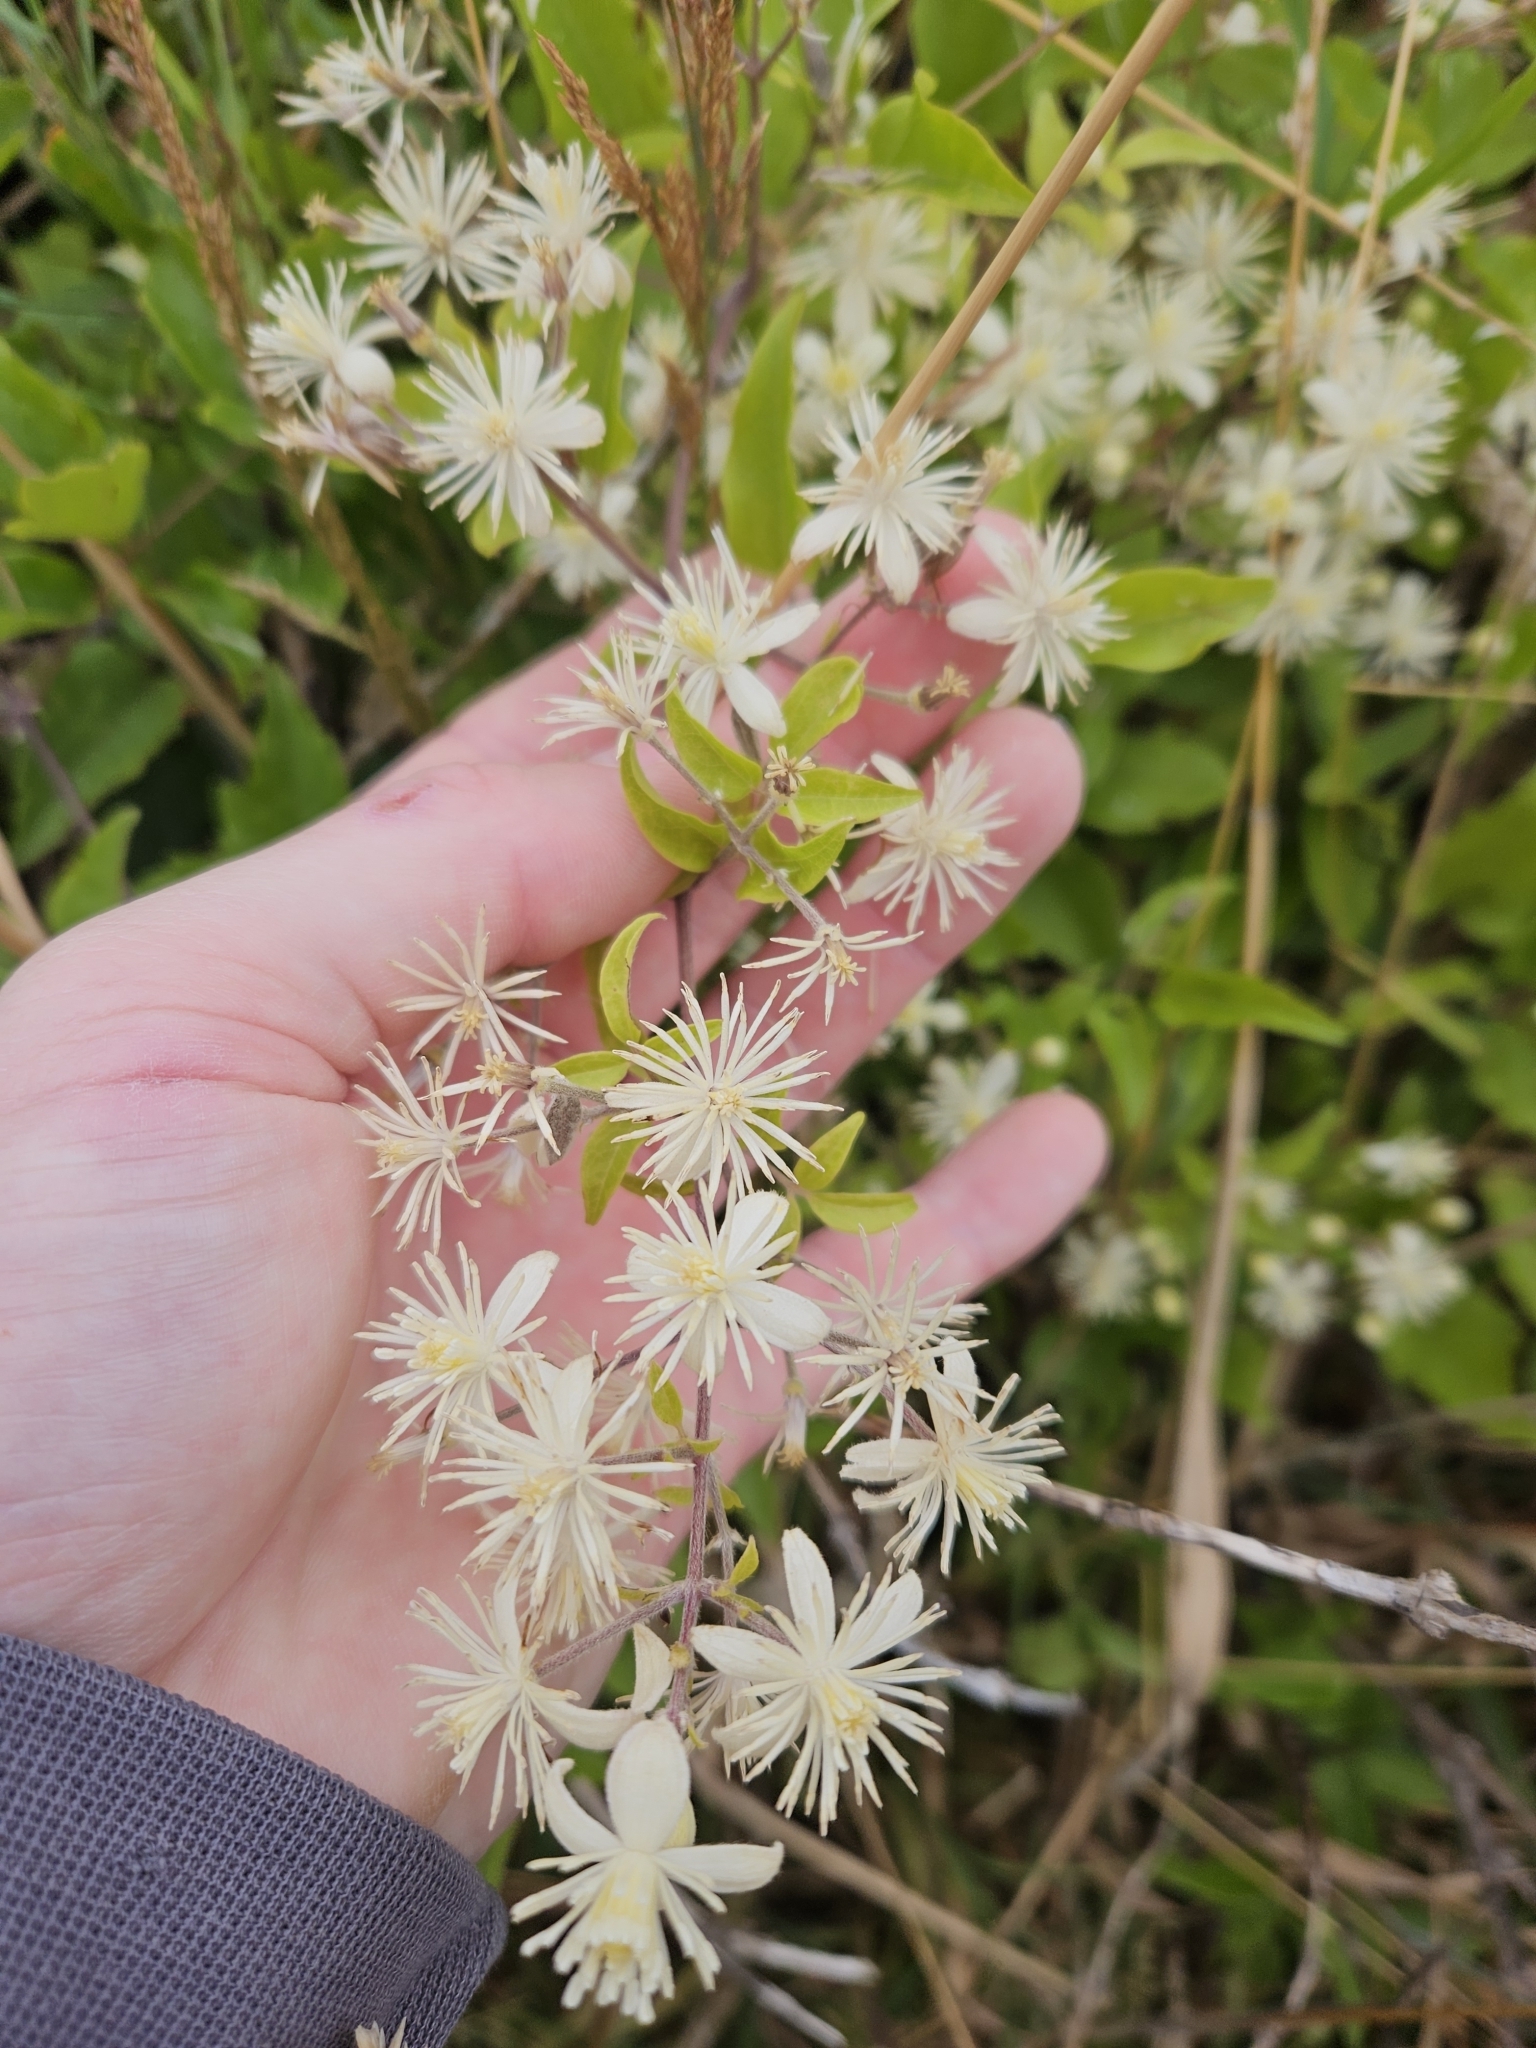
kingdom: Plantae
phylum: Tracheophyta
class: Magnoliopsida
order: Ranunculales
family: Ranunculaceae
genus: Clematis
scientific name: Clematis vitalba
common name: Evergreen clematis
